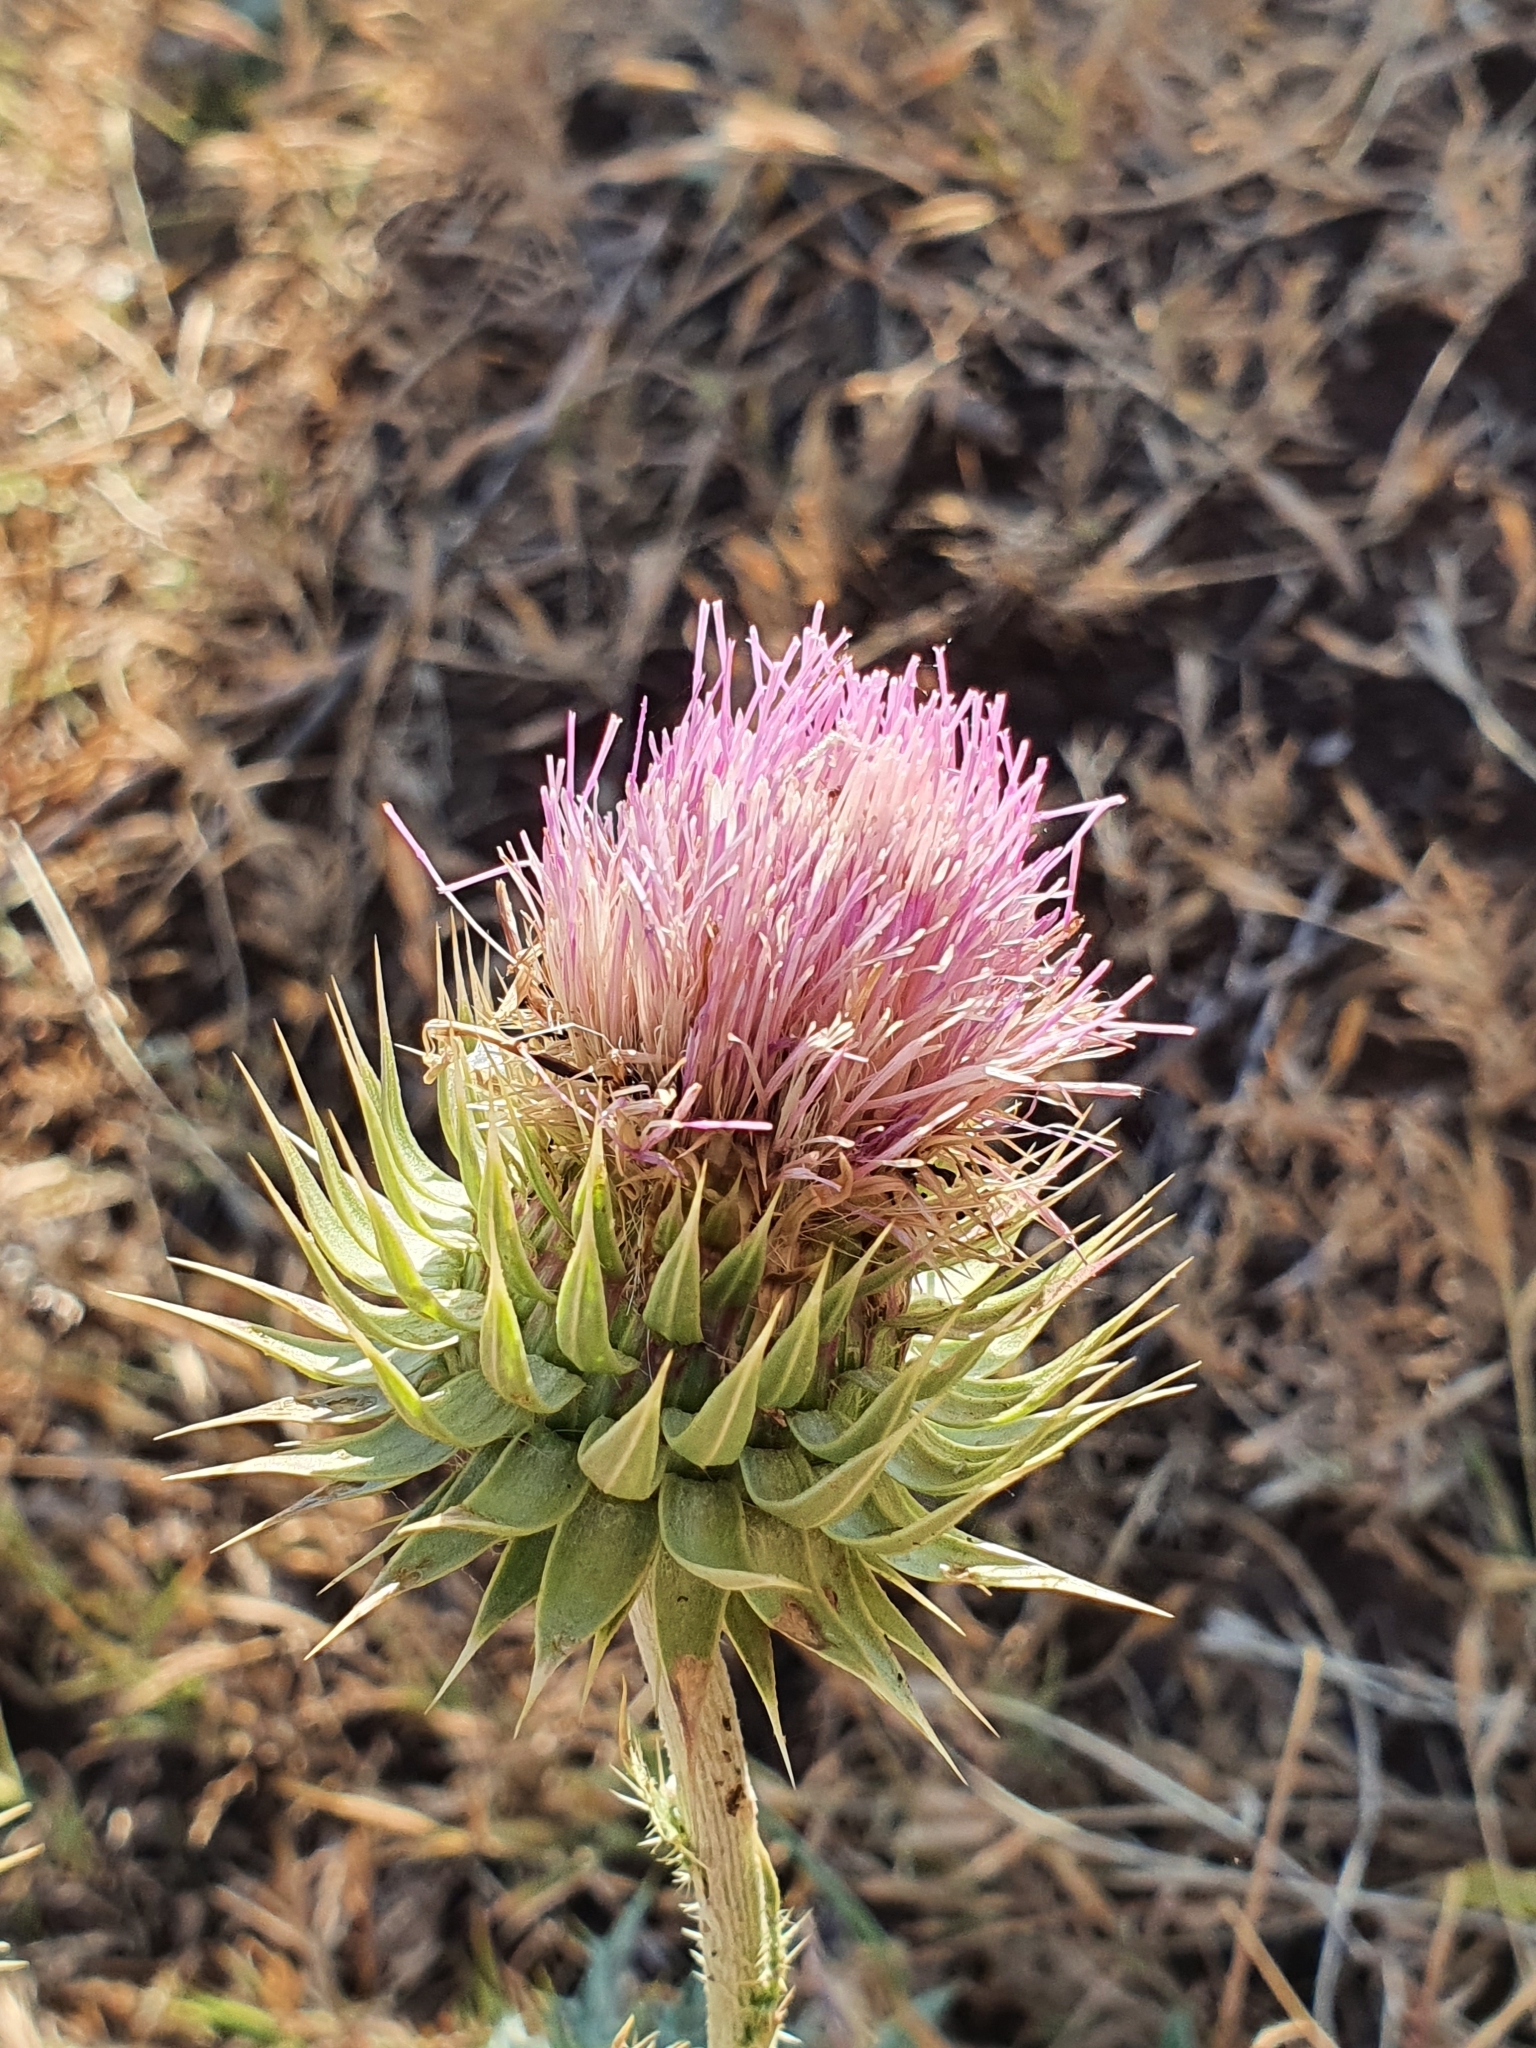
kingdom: Plantae
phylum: Tracheophyta
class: Magnoliopsida
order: Asterales
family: Asteraceae
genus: Carduus
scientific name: Carduus macrocephalus
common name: Giant thistle
